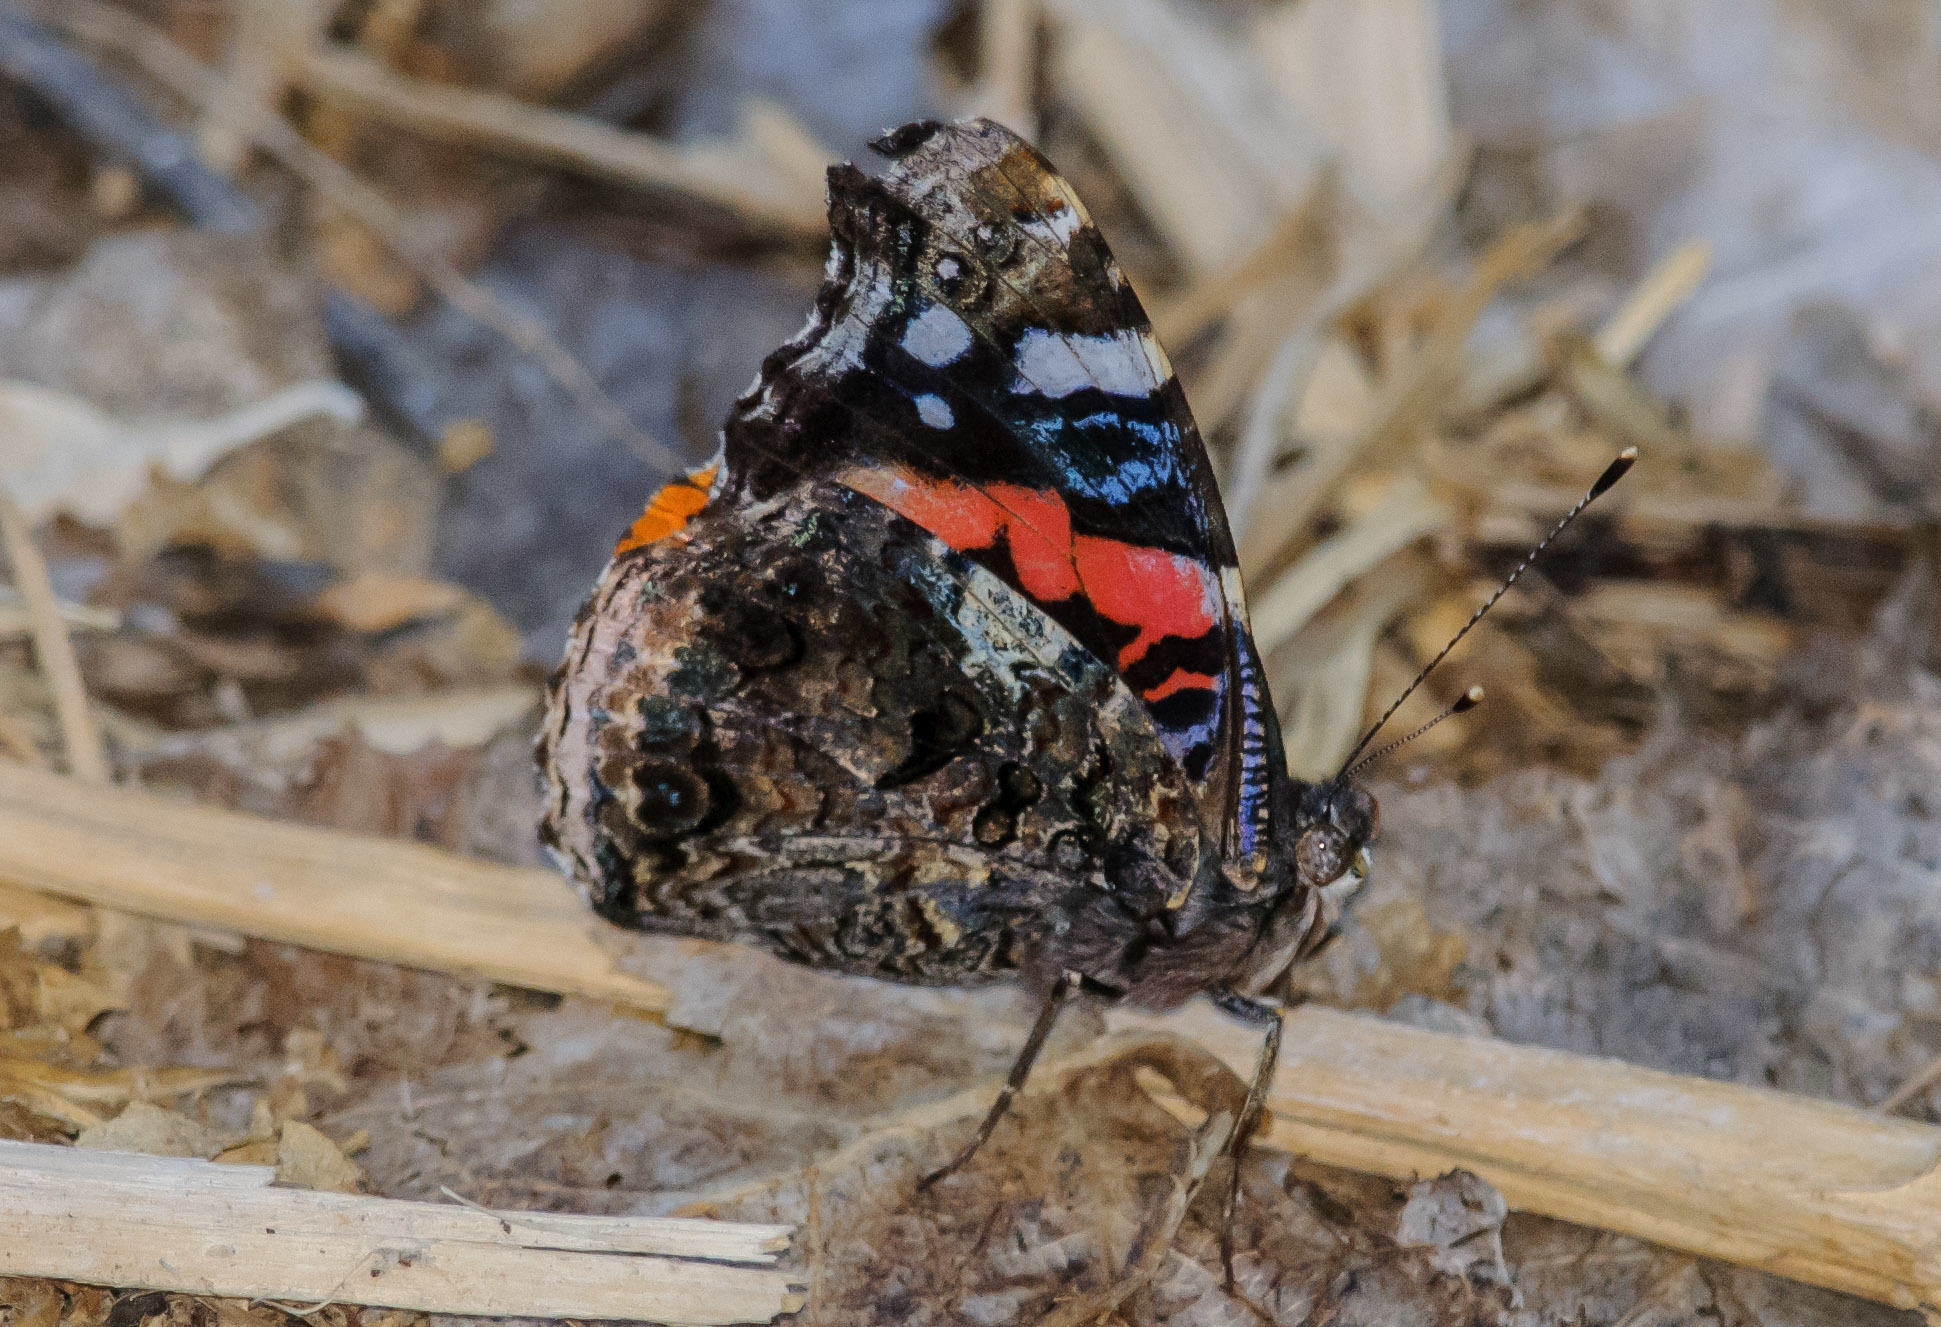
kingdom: Animalia
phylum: Arthropoda
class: Insecta
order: Lepidoptera
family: Nymphalidae
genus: Vanessa
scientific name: Vanessa atalanta
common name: Red admiral
